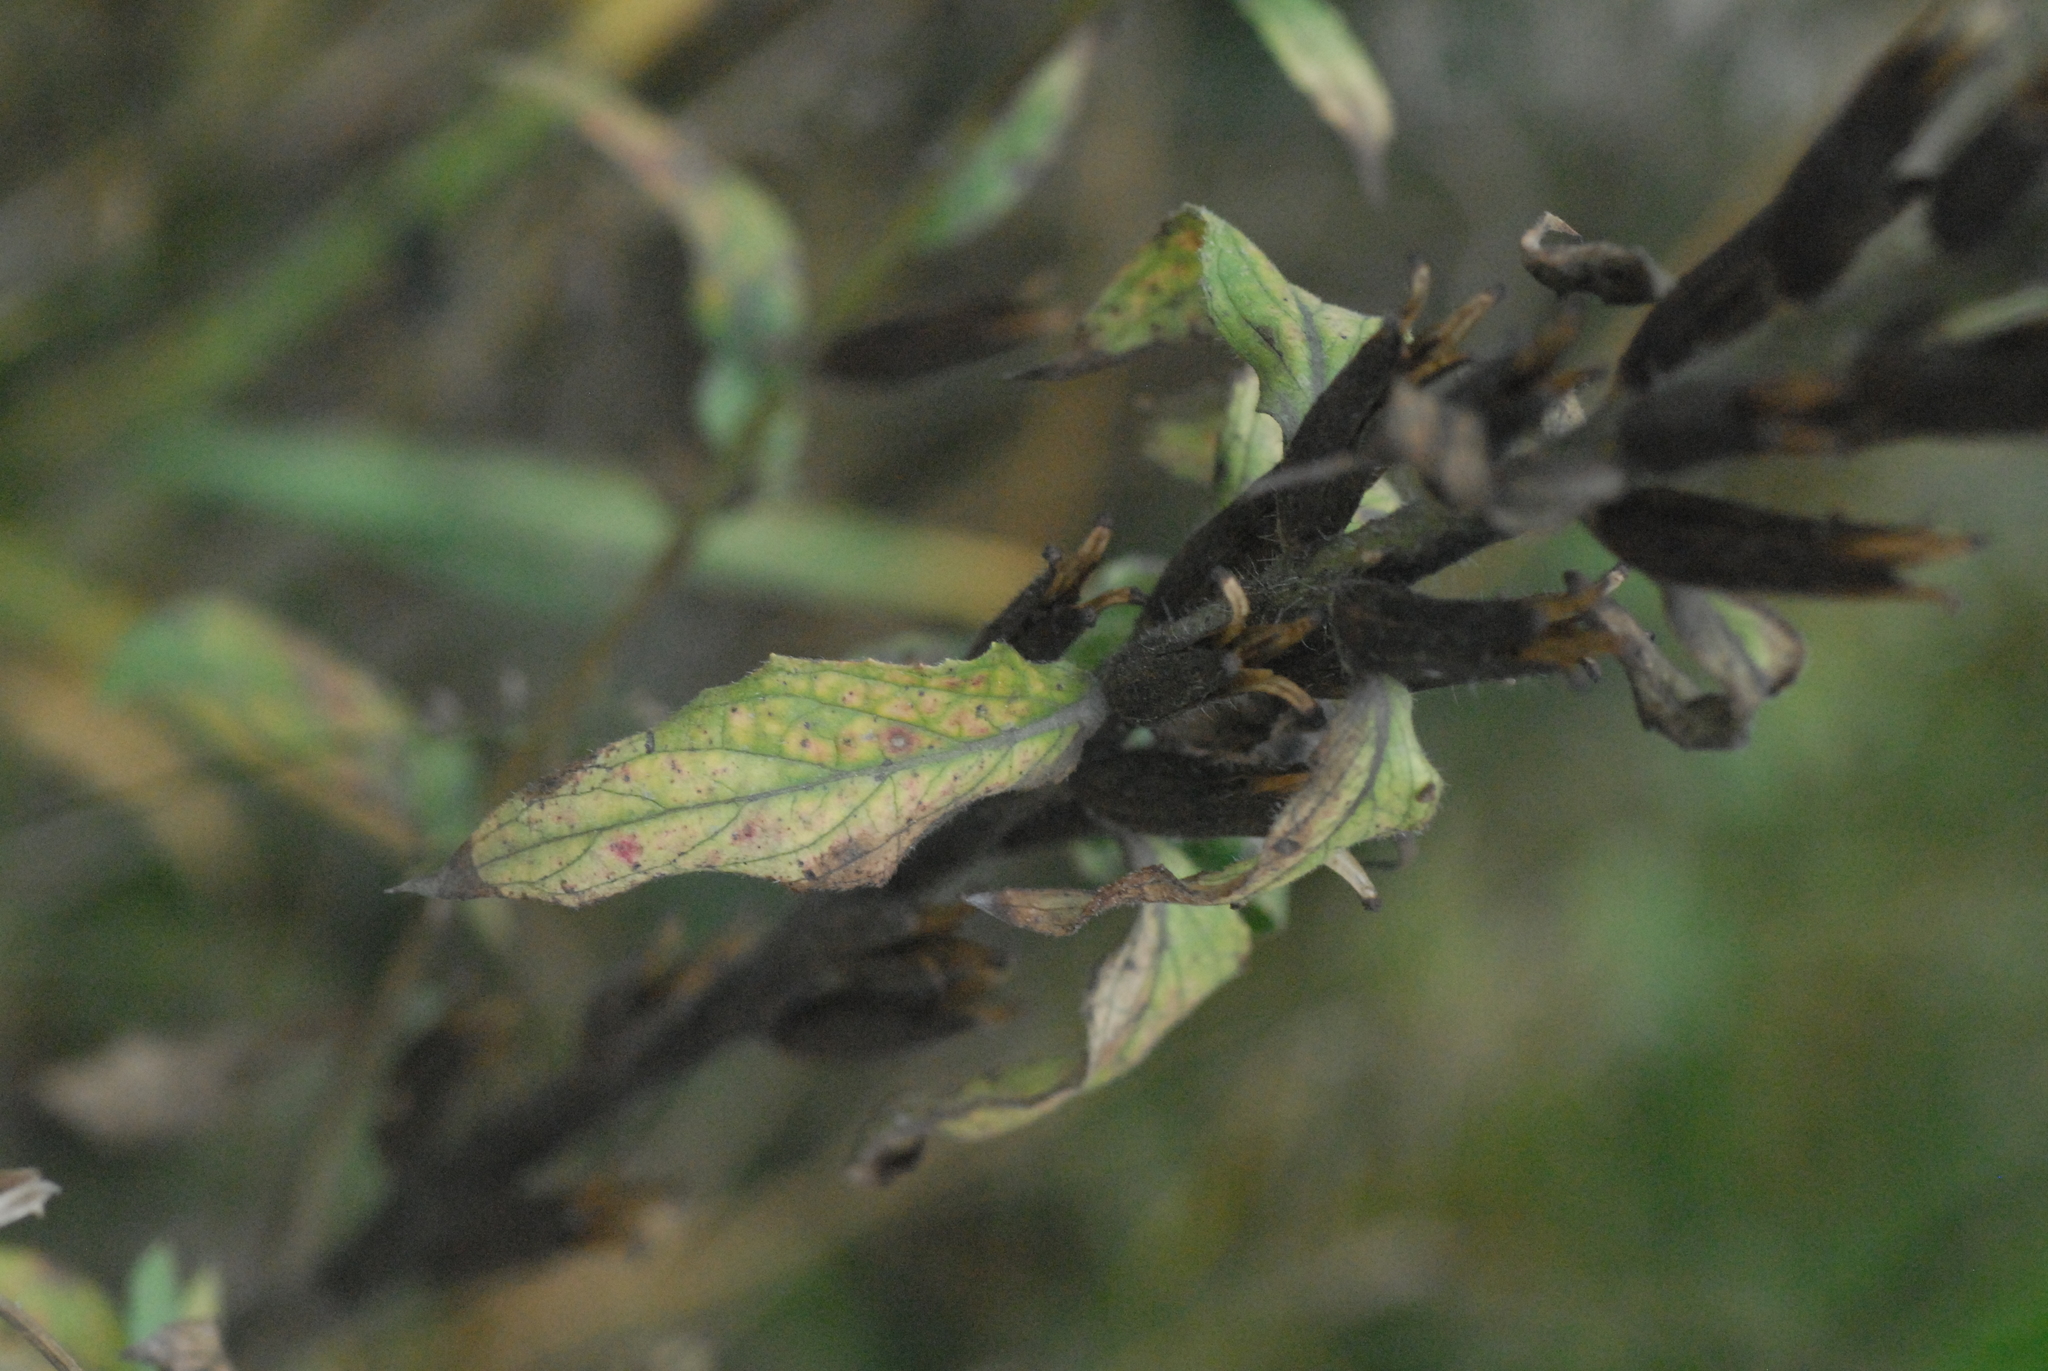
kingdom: Plantae
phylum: Tracheophyta
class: Magnoliopsida
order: Myrtales
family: Onagraceae
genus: Oenothera
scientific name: Oenothera
